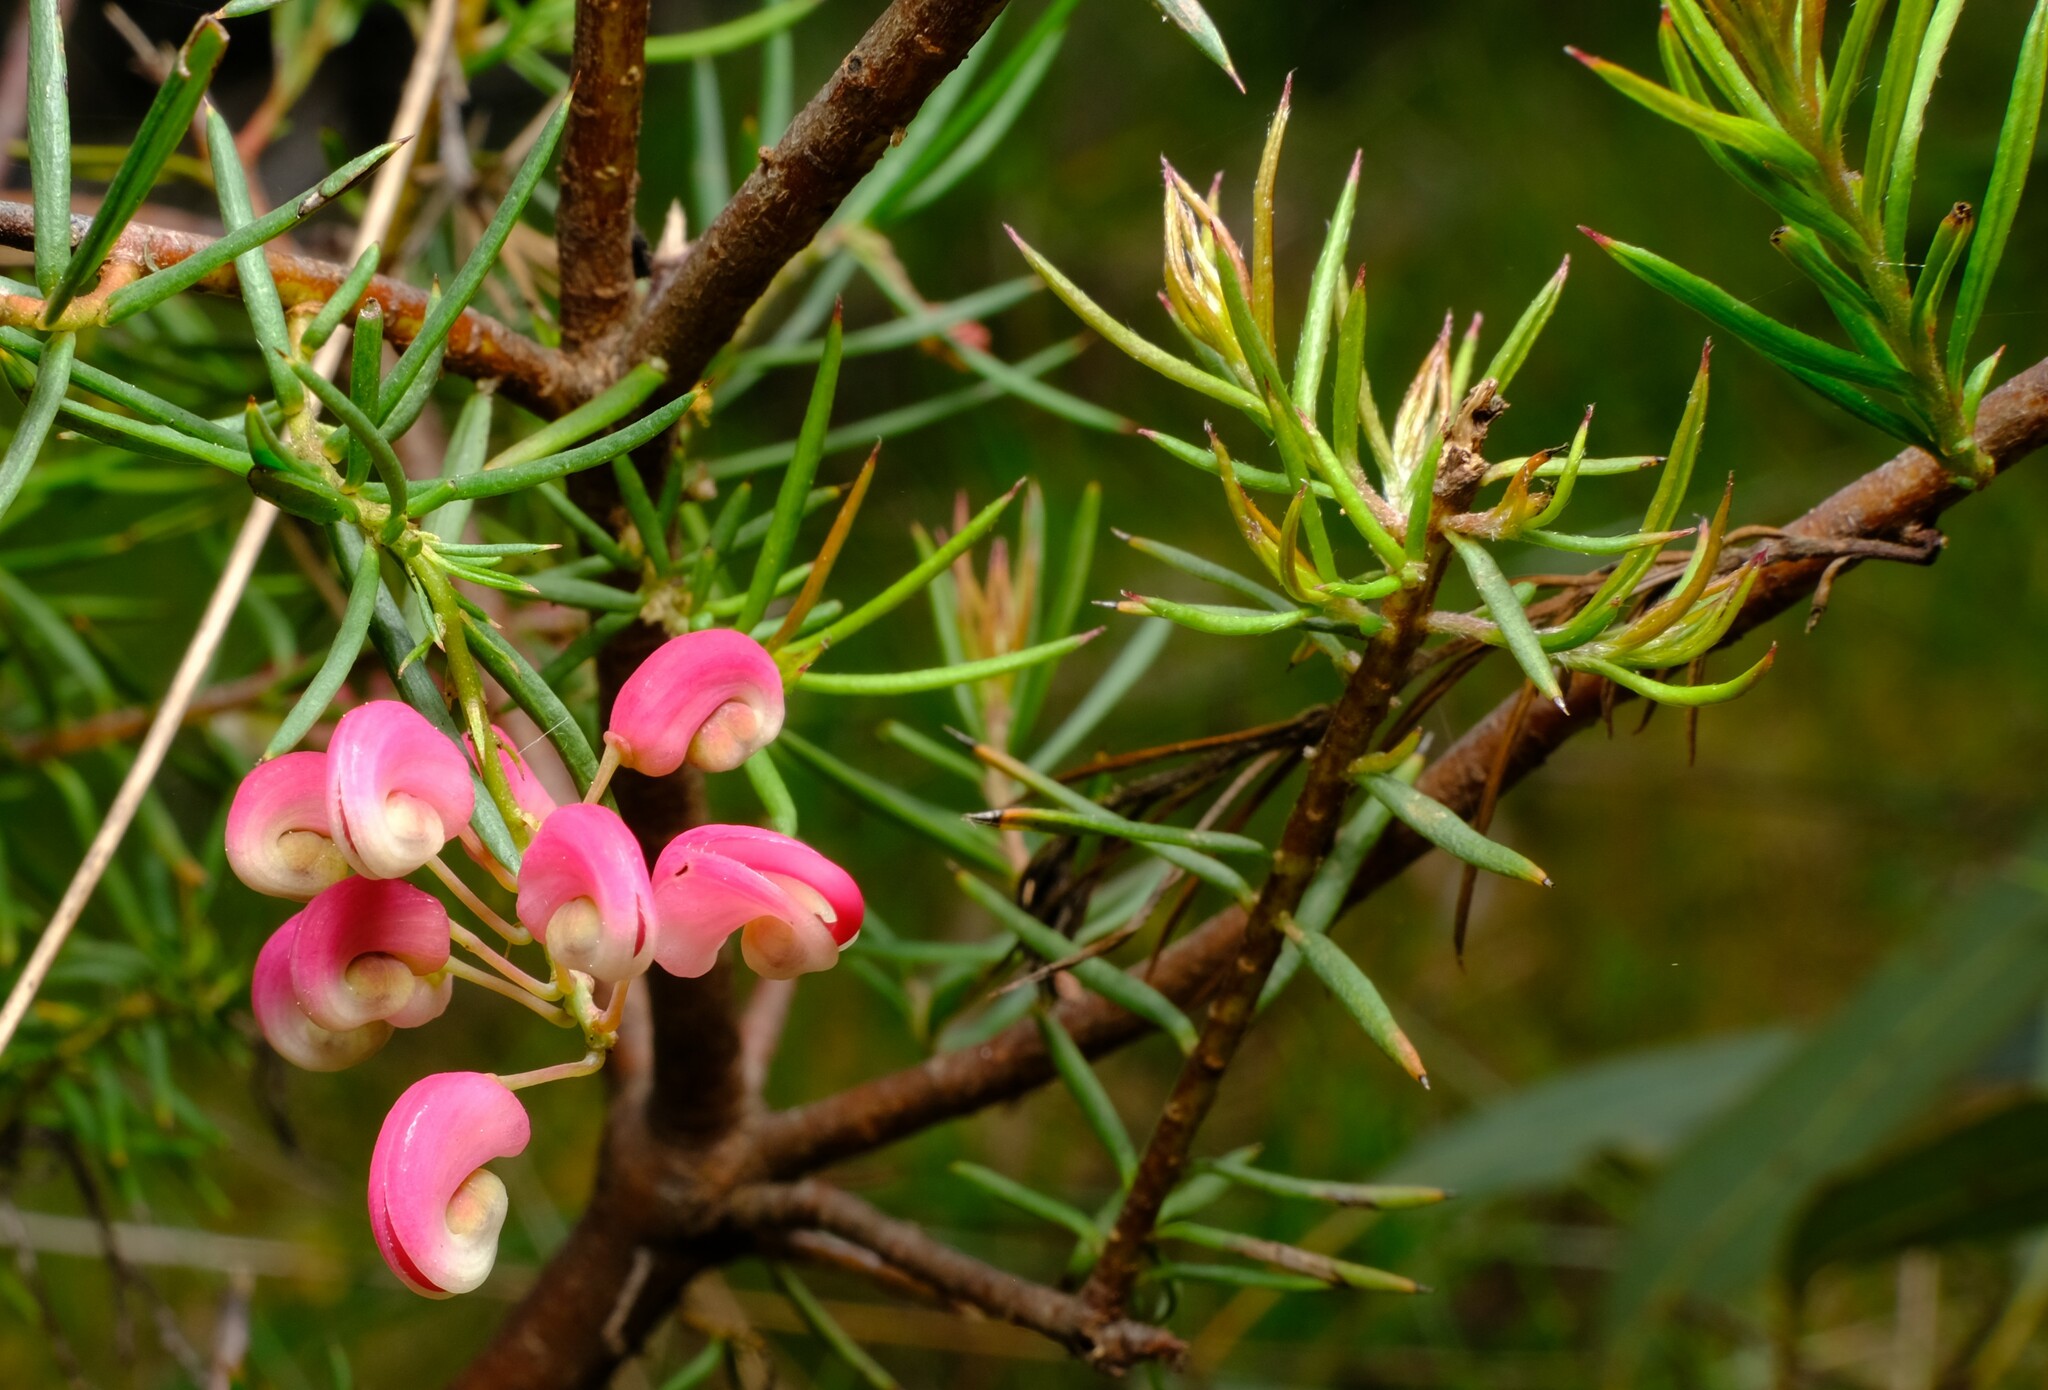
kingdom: Plantae
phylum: Tracheophyta
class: Magnoliopsida
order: Proteales
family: Proteaceae
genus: Grevillea
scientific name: Grevillea rosmarinifolia
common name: Rosemary grevillea
